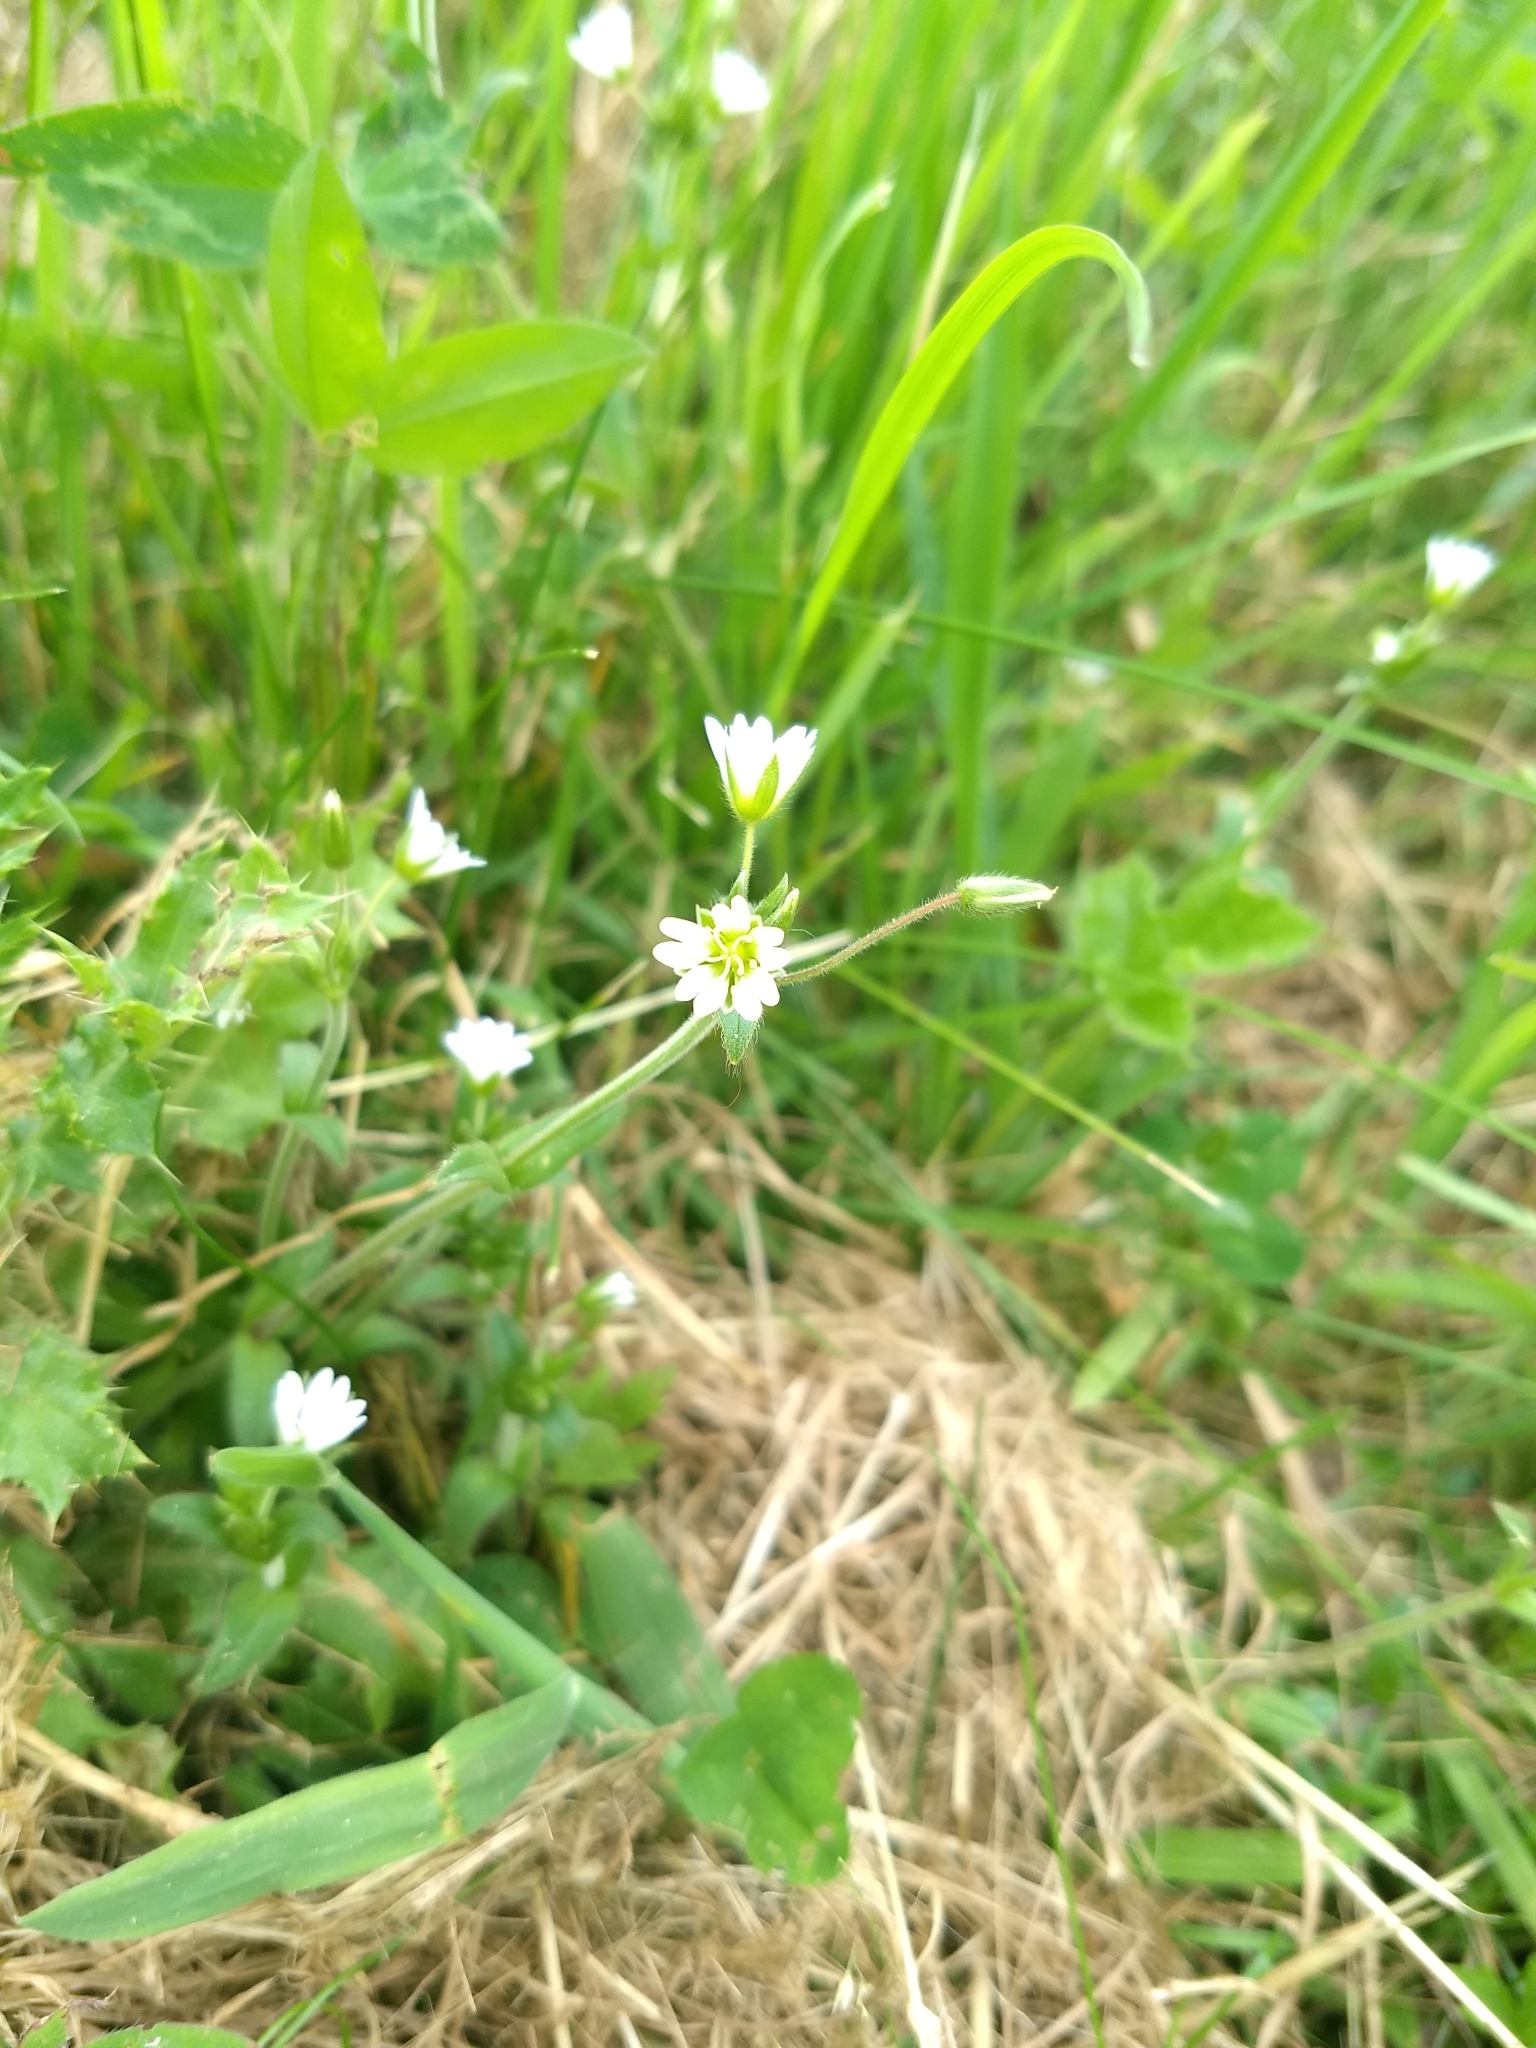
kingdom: Plantae
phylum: Tracheophyta
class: Magnoliopsida
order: Caryophyllales
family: Caryophyllaceae
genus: Cerastium
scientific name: Cerastium fontanum
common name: Common mouse-ear
